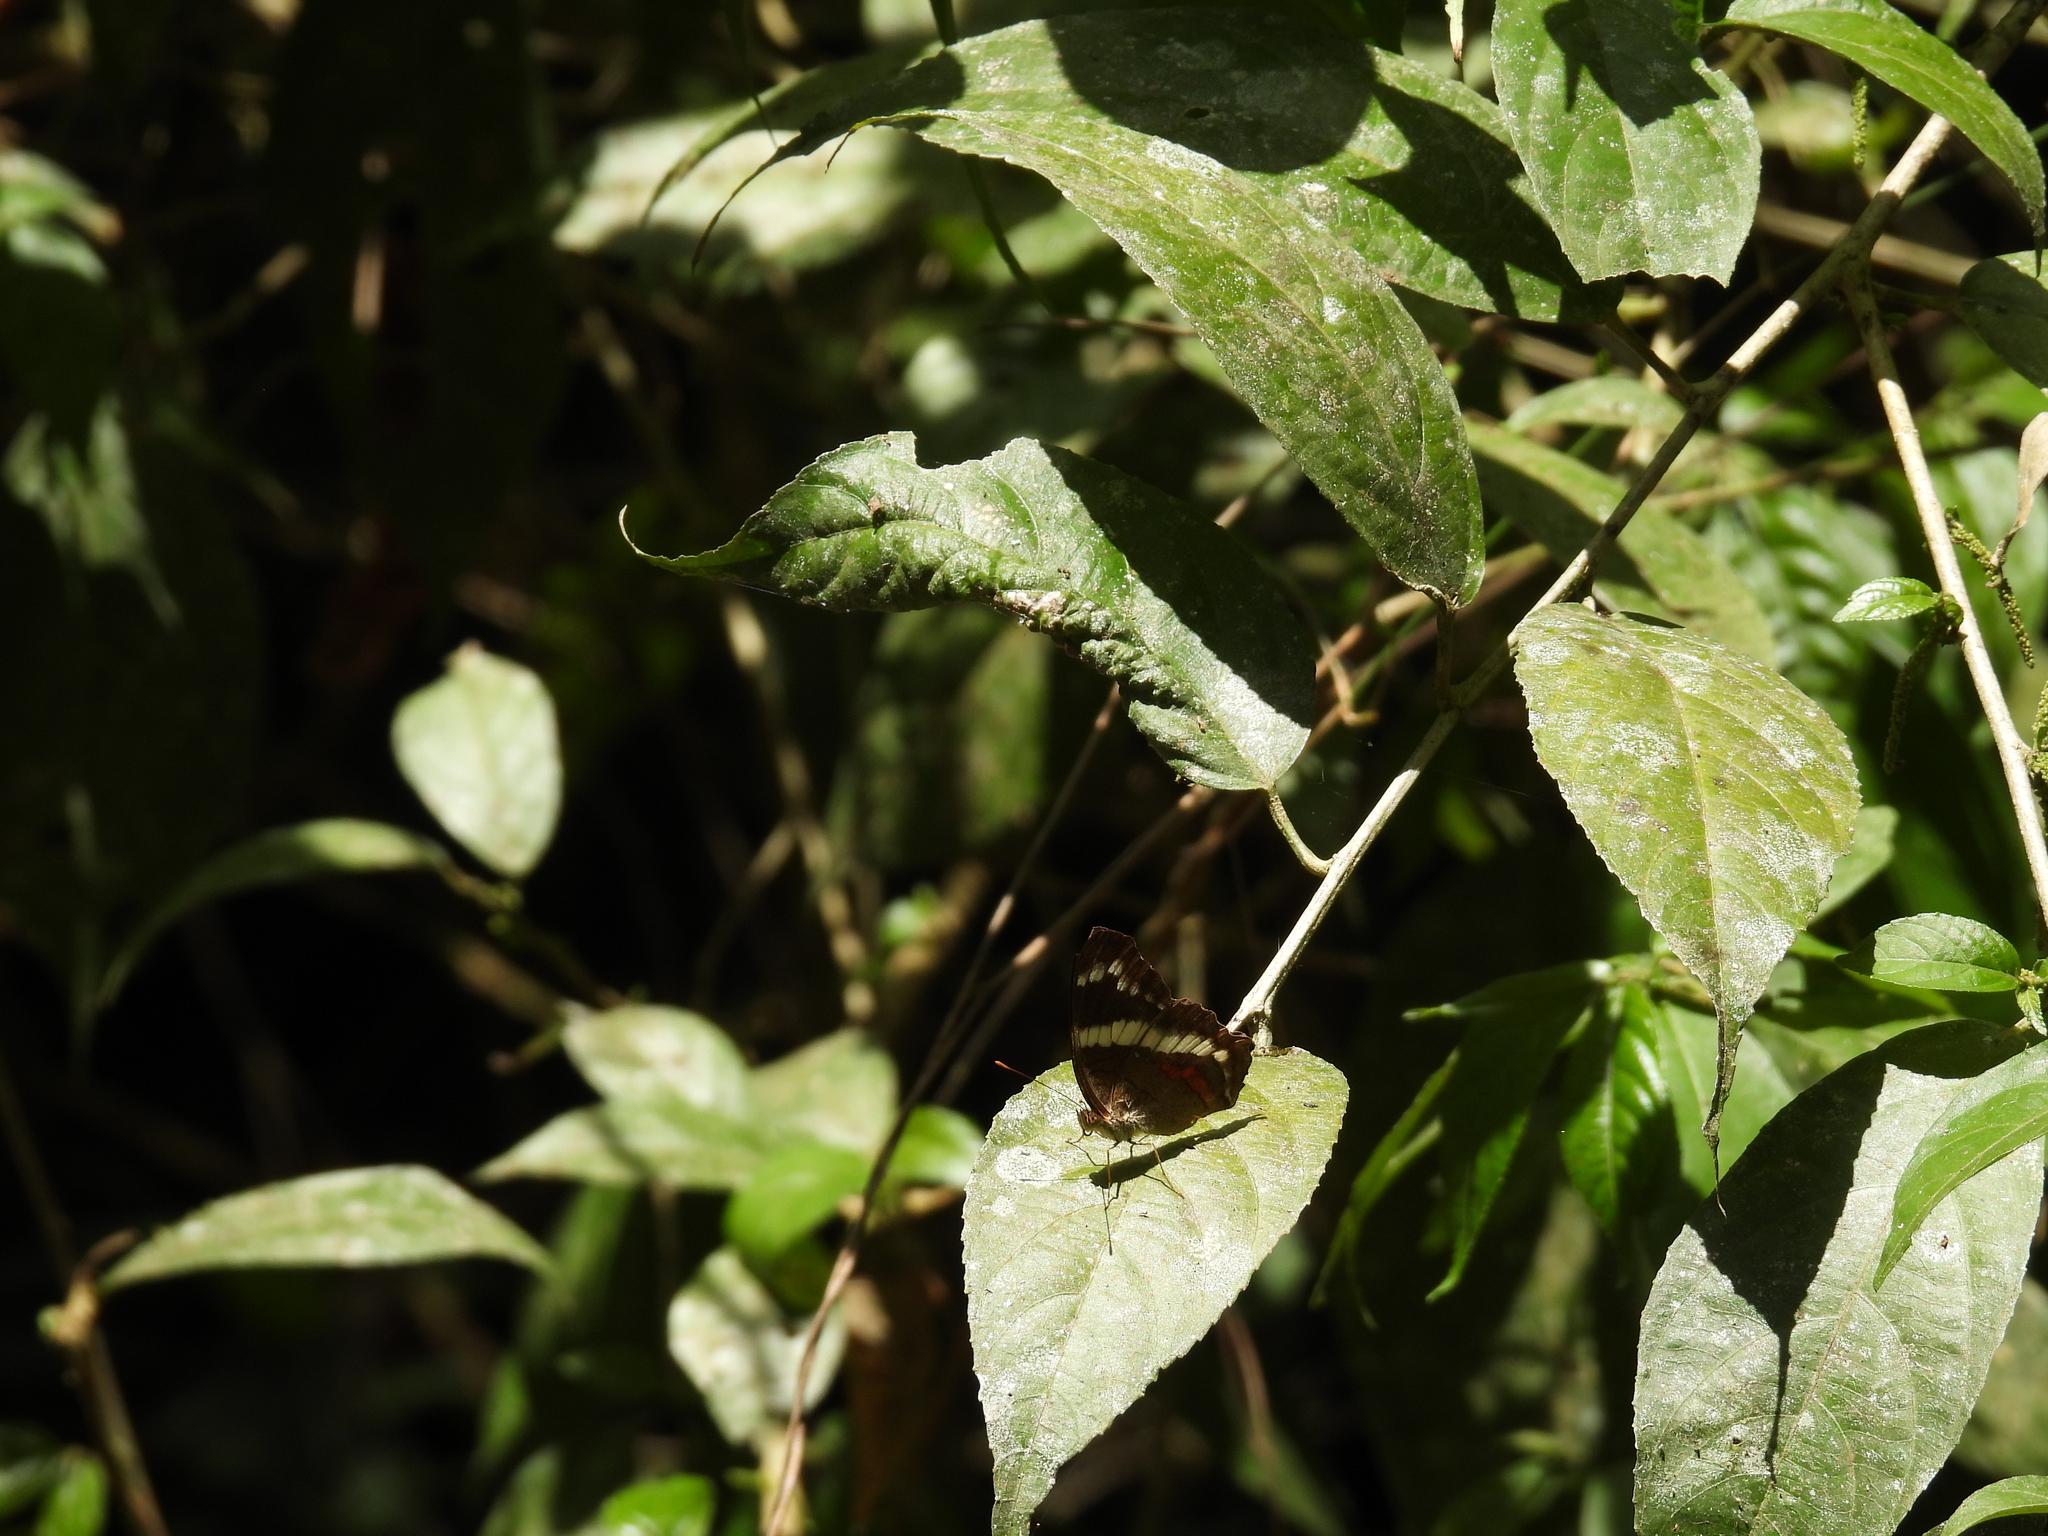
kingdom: Animalia
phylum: Arthropoda
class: Insecta
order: Lepidoptera
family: Nymphalidae
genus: Anartia
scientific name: Anartia fatima
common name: Banded peacock
